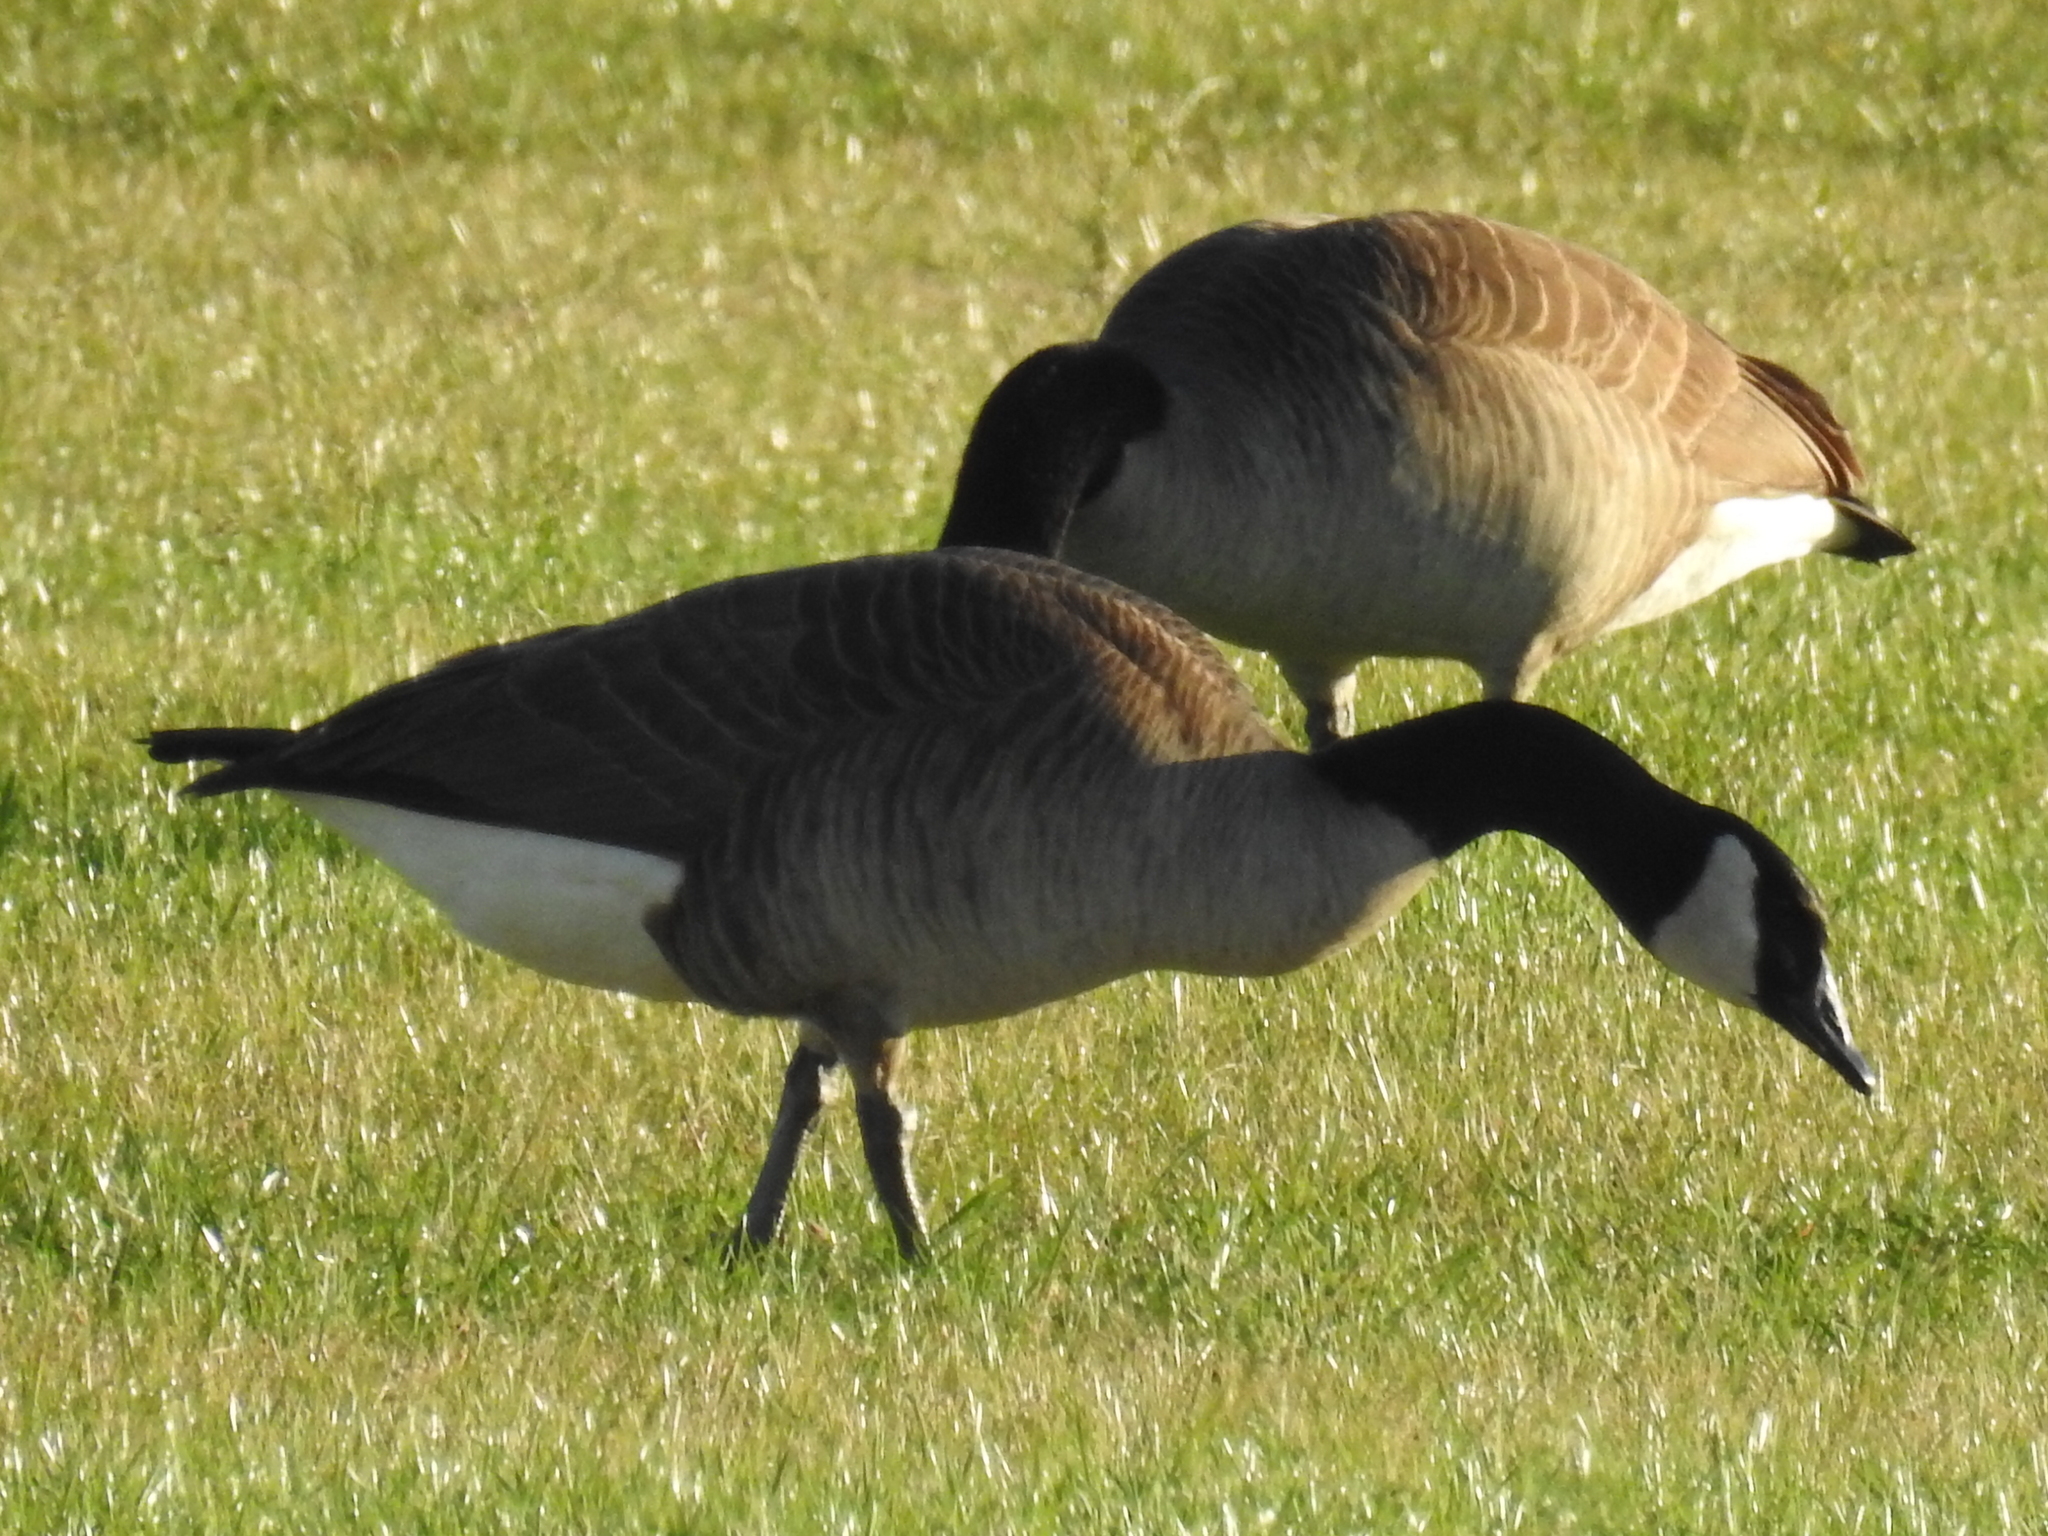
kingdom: Animalia
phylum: Chordata
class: Aves
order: Anseriformes
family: Anatidae
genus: Branta
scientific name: Branta canadensis
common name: Canada goose
